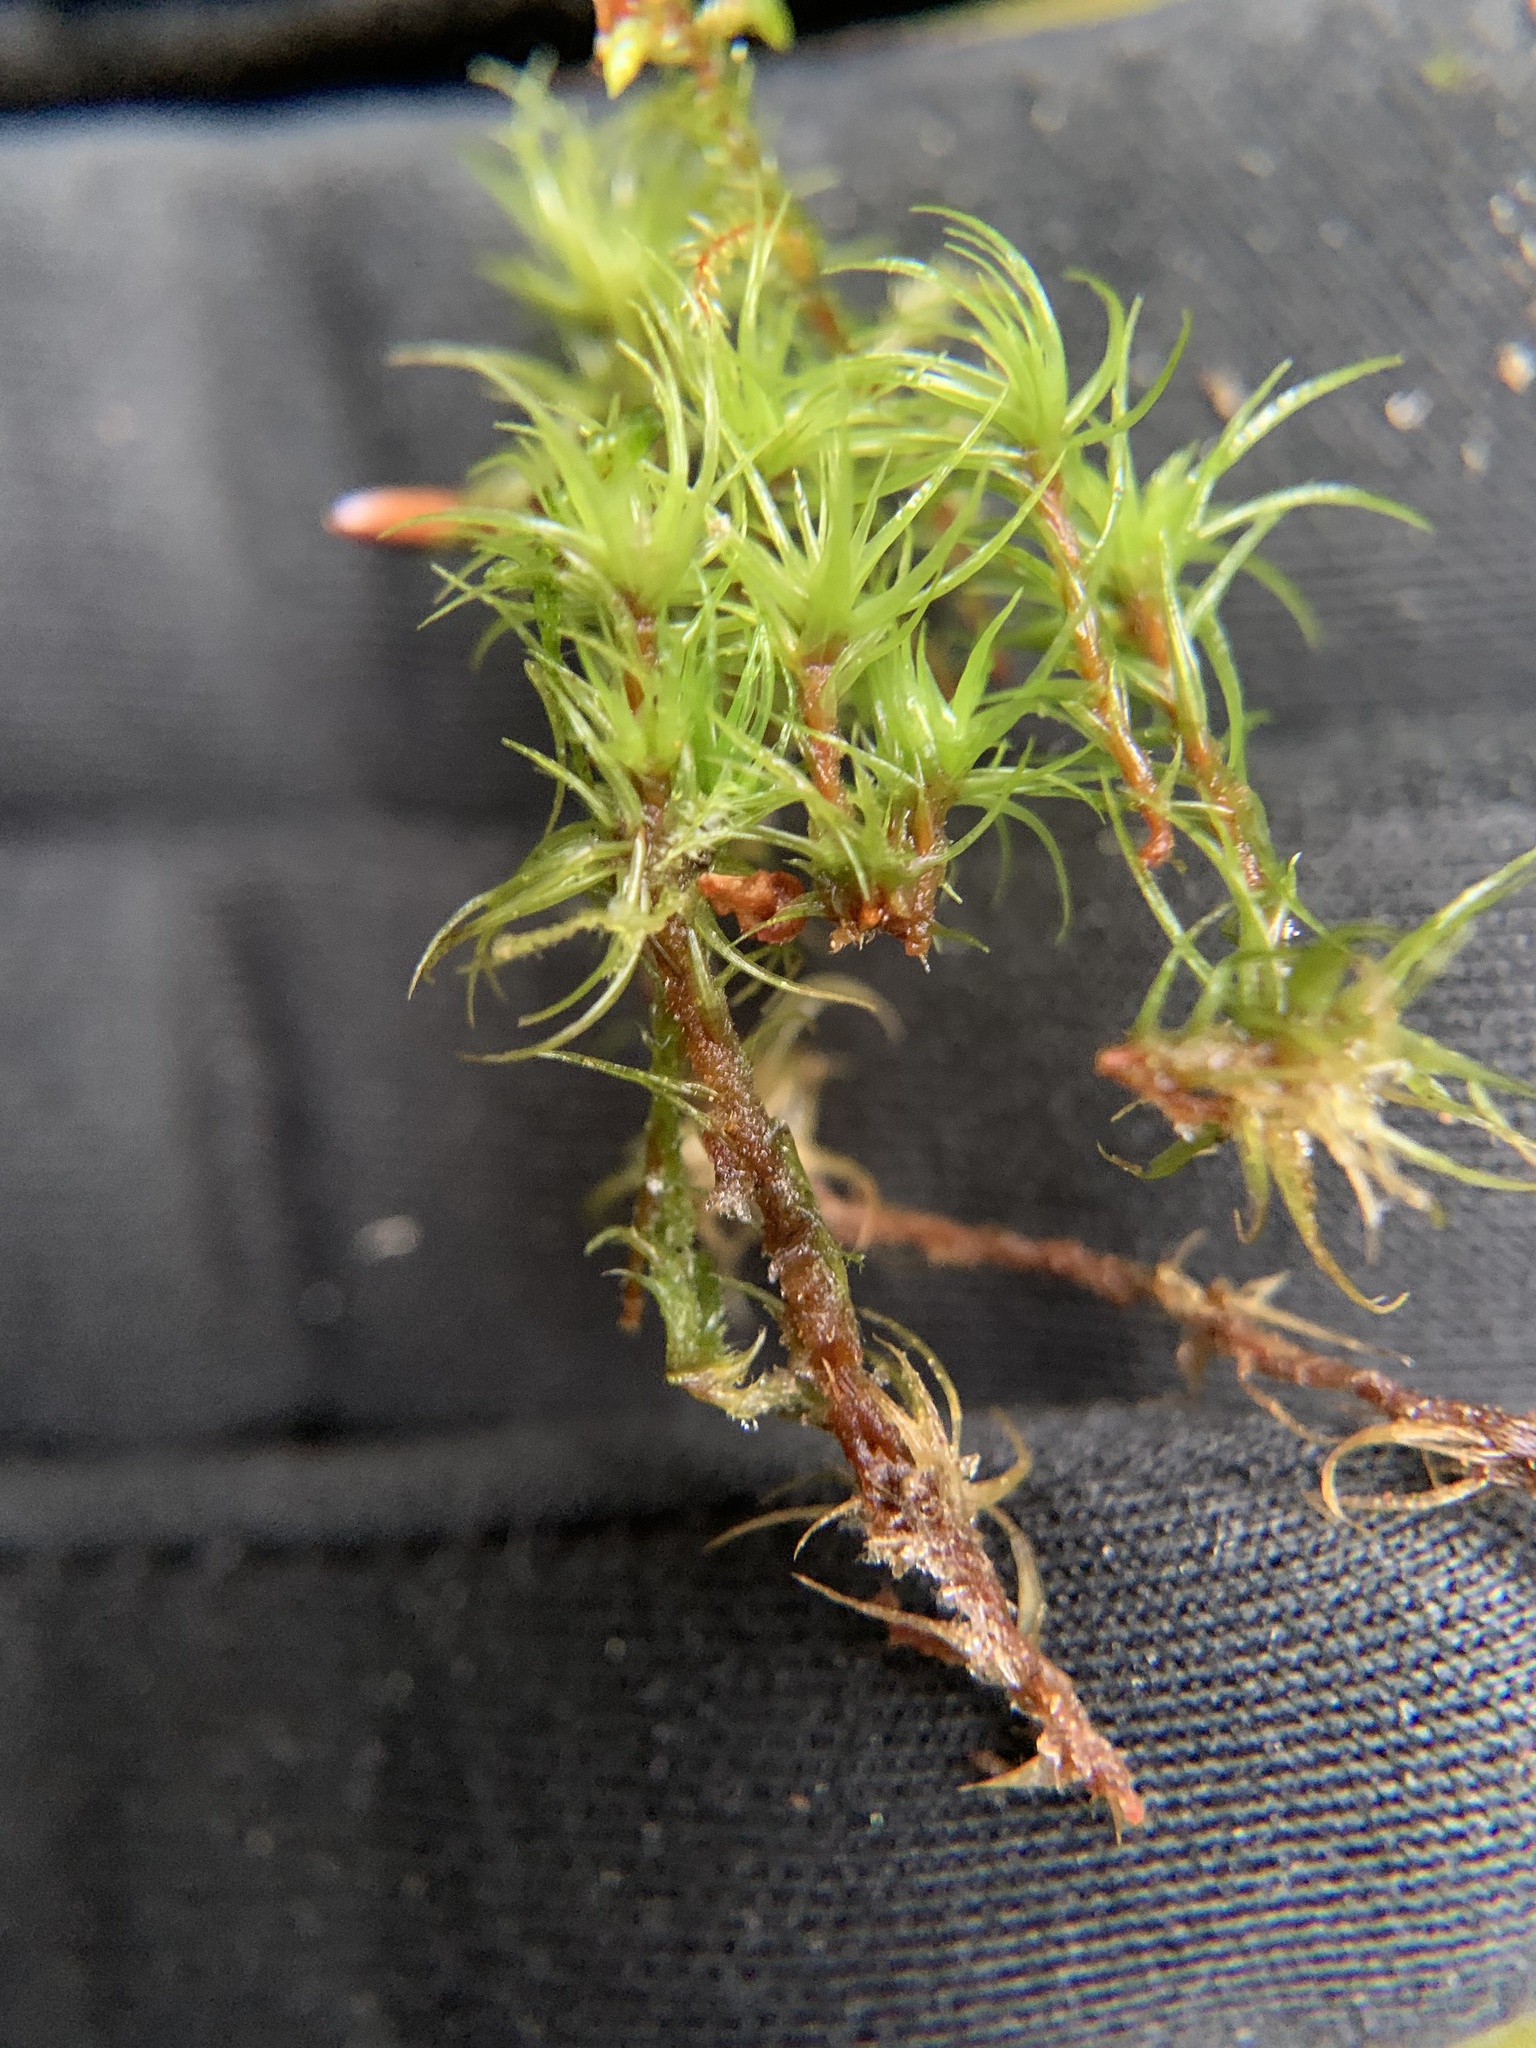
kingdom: Plantae
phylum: Bryophyta
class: Bryopsida
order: Dicranales
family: Dicranaceae
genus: Dicranum
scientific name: Dicranum scoparium
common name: Broom fork-moss
